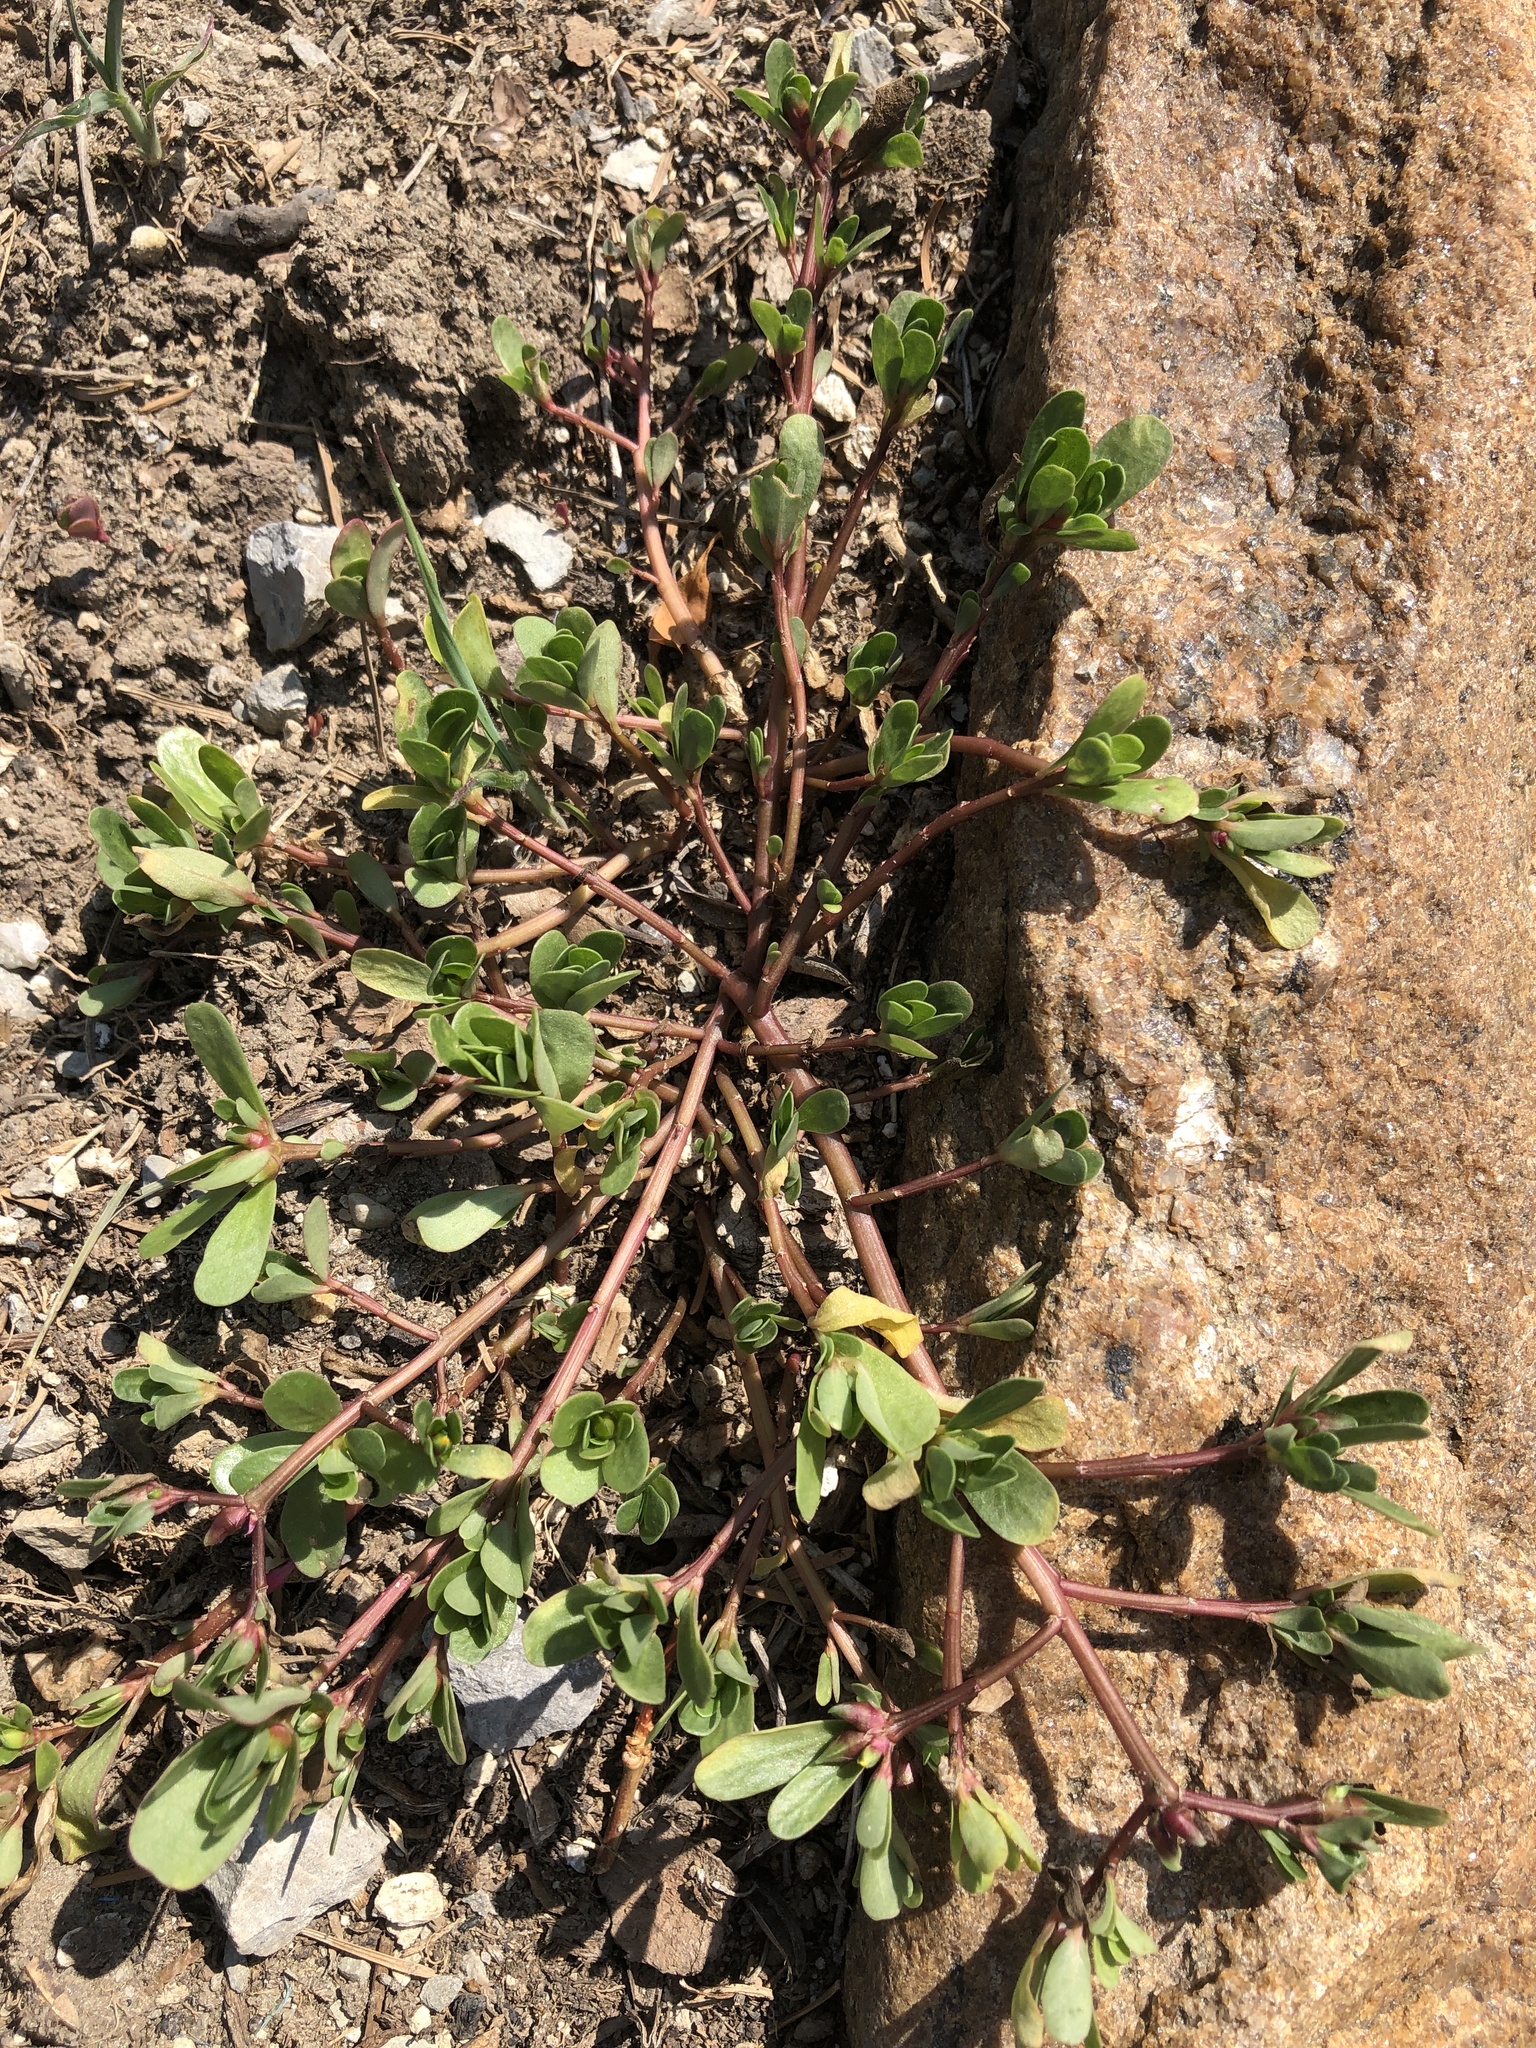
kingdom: Plantae
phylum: Tracheophyta
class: Magnoliopsida
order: Caryophyllales
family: Portulacaceae
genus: Portulaca
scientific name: Portulaca oleracea
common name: Common purslane
